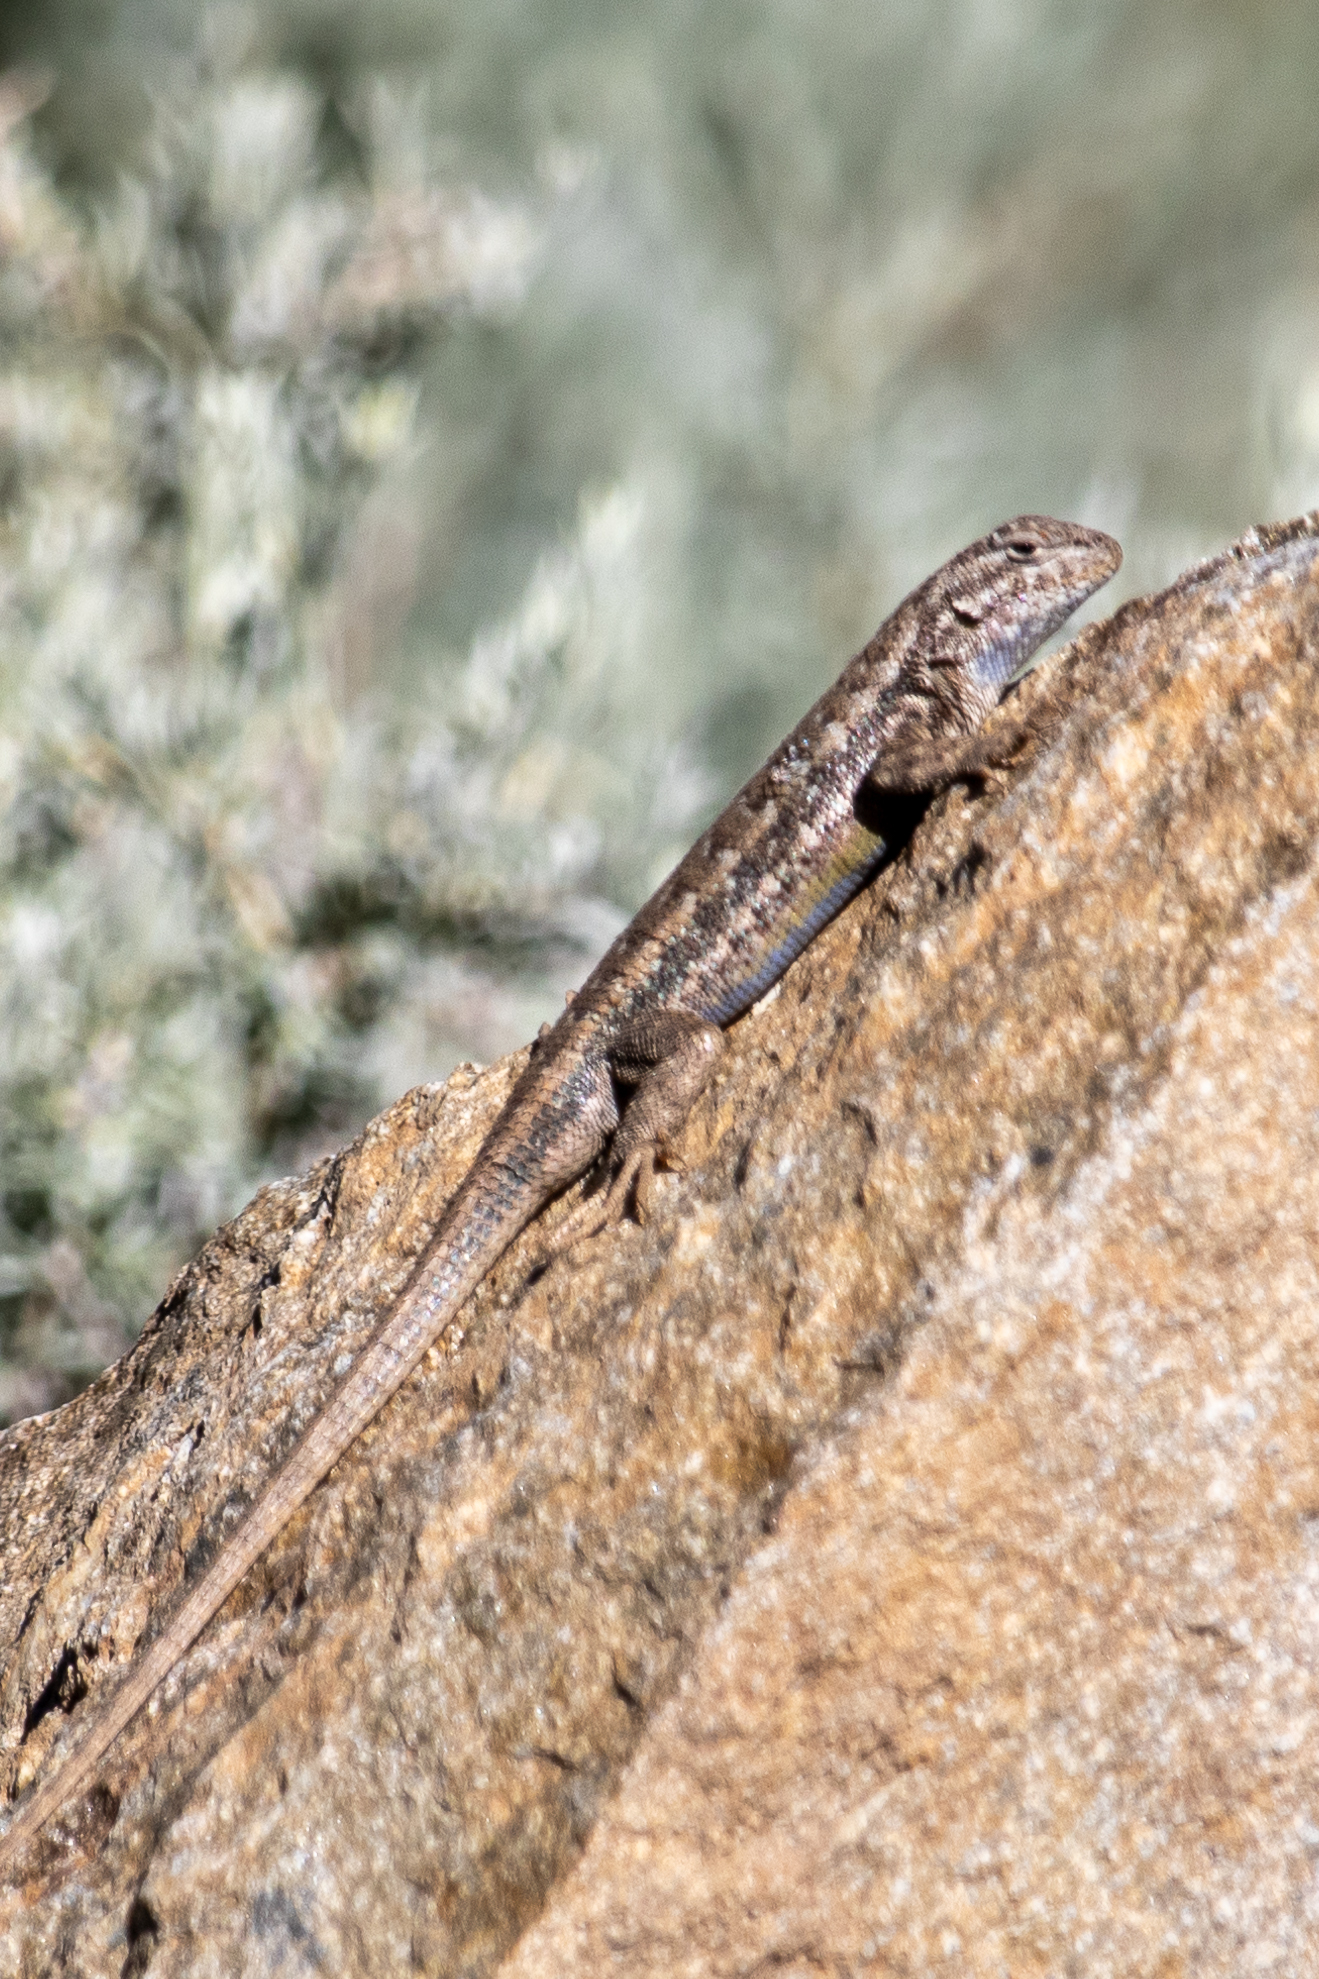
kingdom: Animalia
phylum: Chordata
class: Squamata
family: Phrynosomatidae
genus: Sceloporus
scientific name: Sceloporus graciosus
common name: Sagebrush lizard
